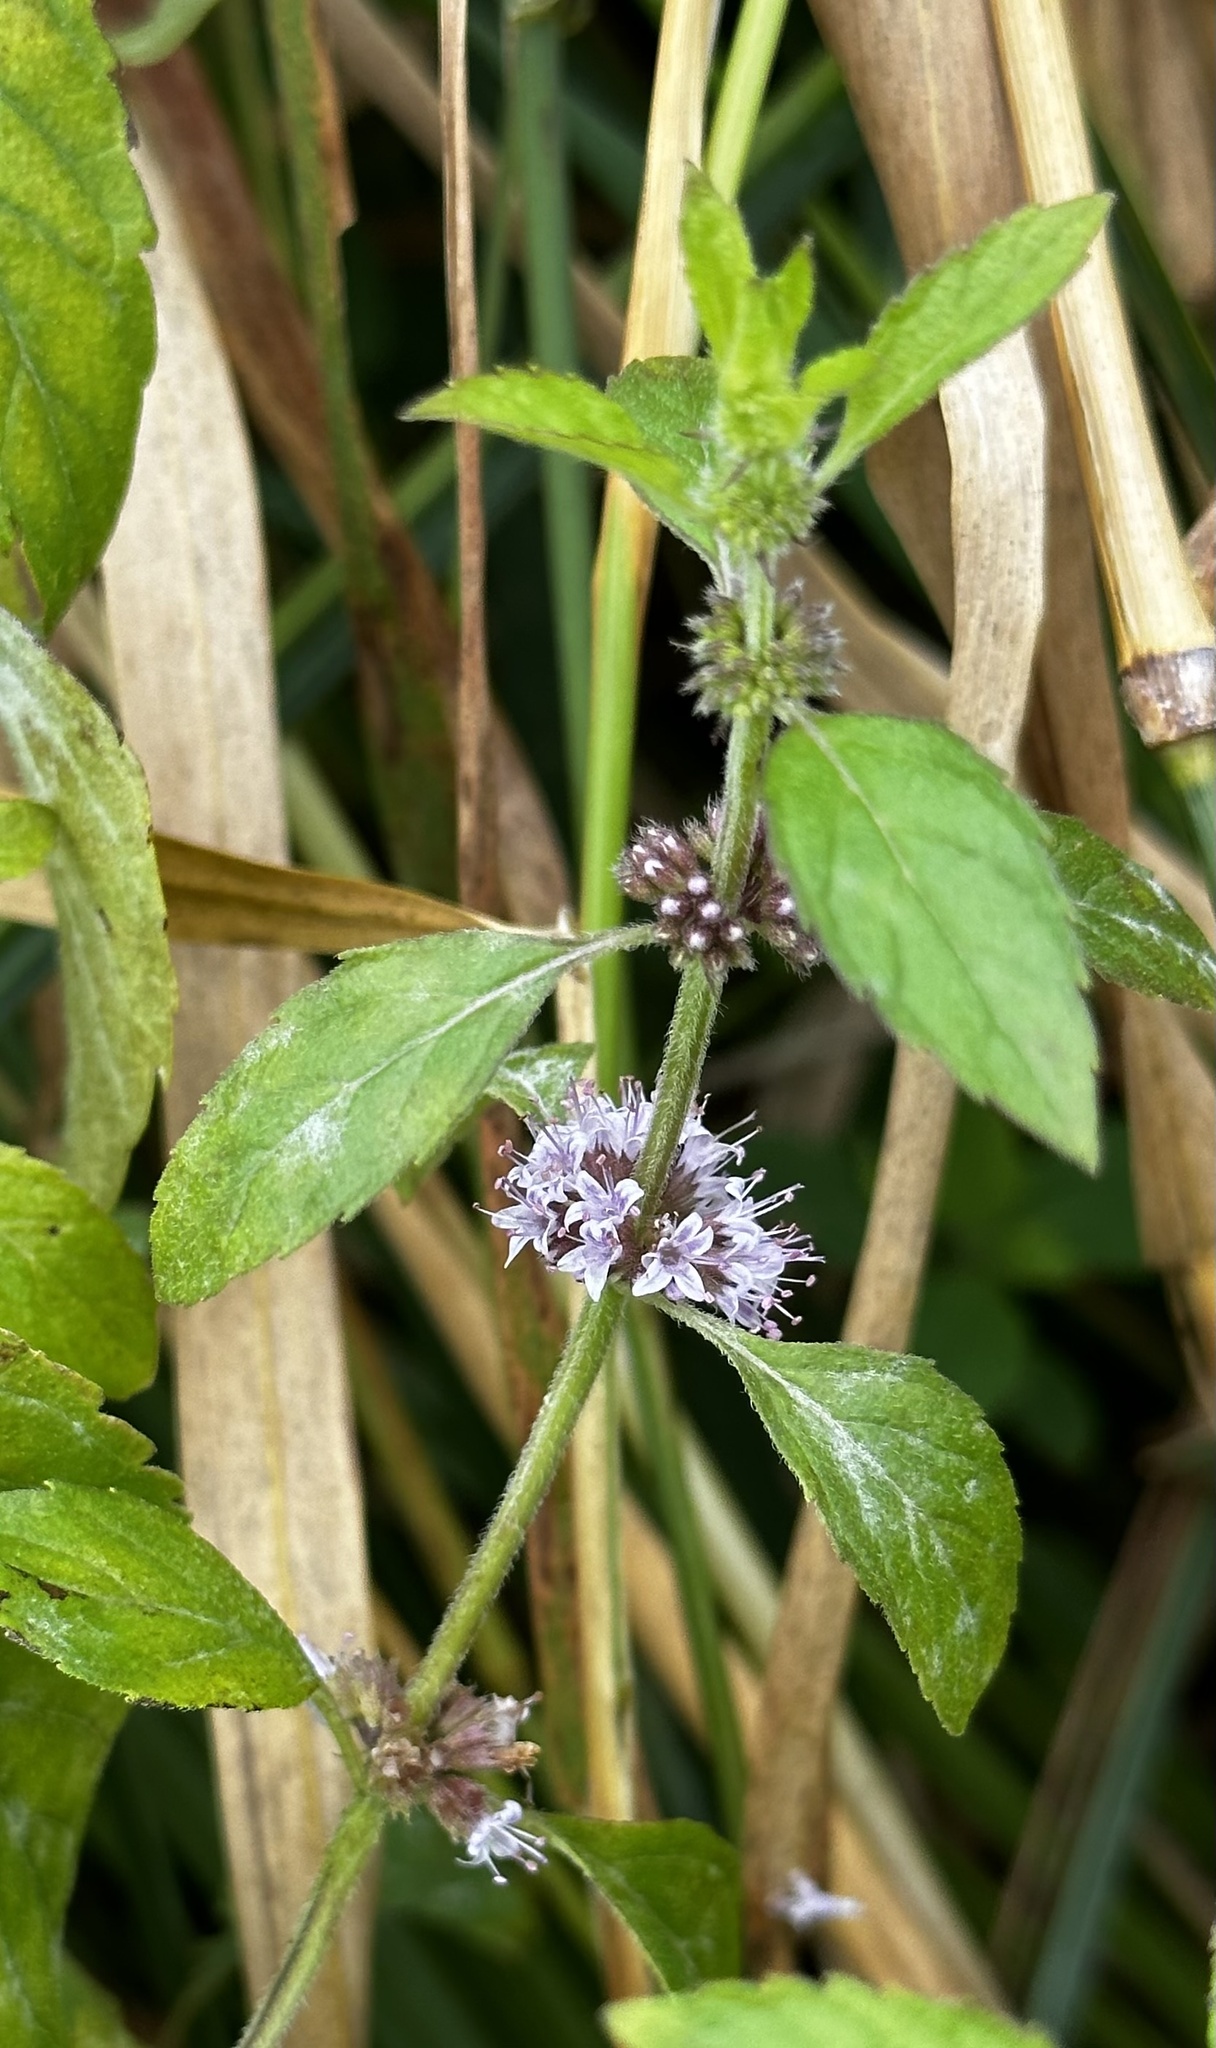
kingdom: Plantae
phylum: Tracheophyta
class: Magnoliopsida
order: Lamiales
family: Lamiaceae
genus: Mentha
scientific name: Mentha canadensis
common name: American corn mint
